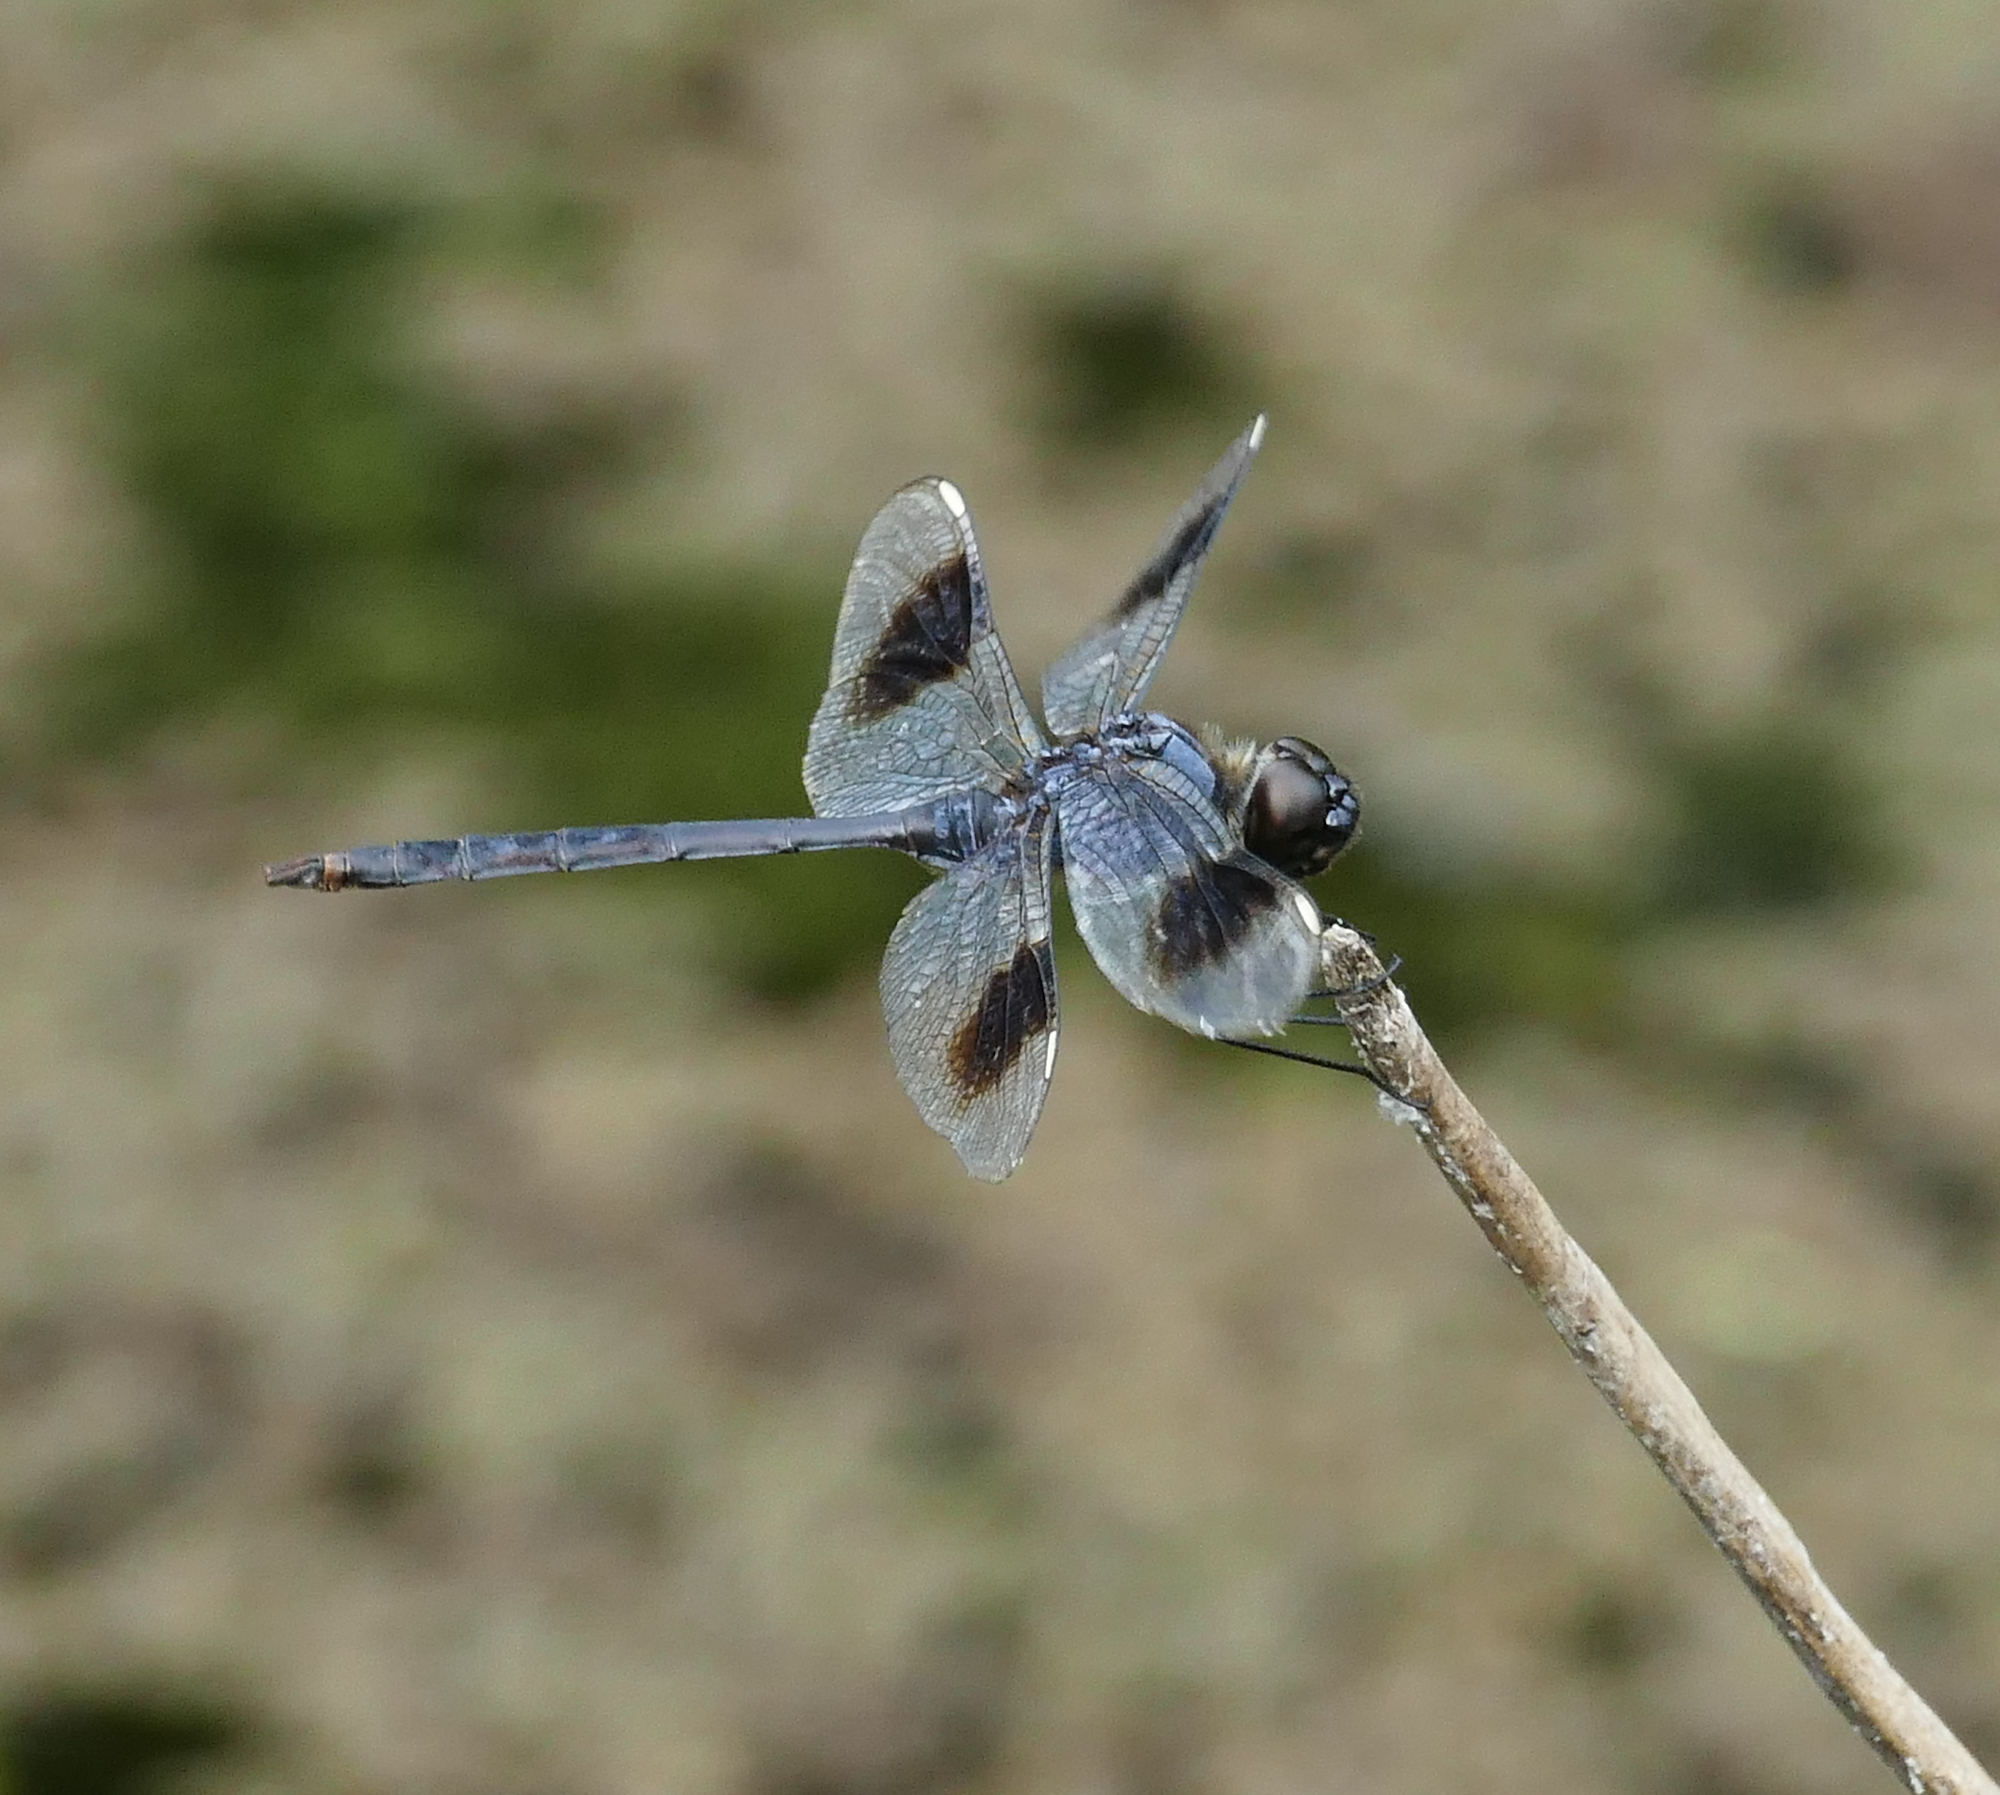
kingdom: Animalia
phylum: Arthropoda
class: Insecta
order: Odonata
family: Libellulidae
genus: Brachymesia
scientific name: Brachymesia gravida
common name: Four-spotted pennant
